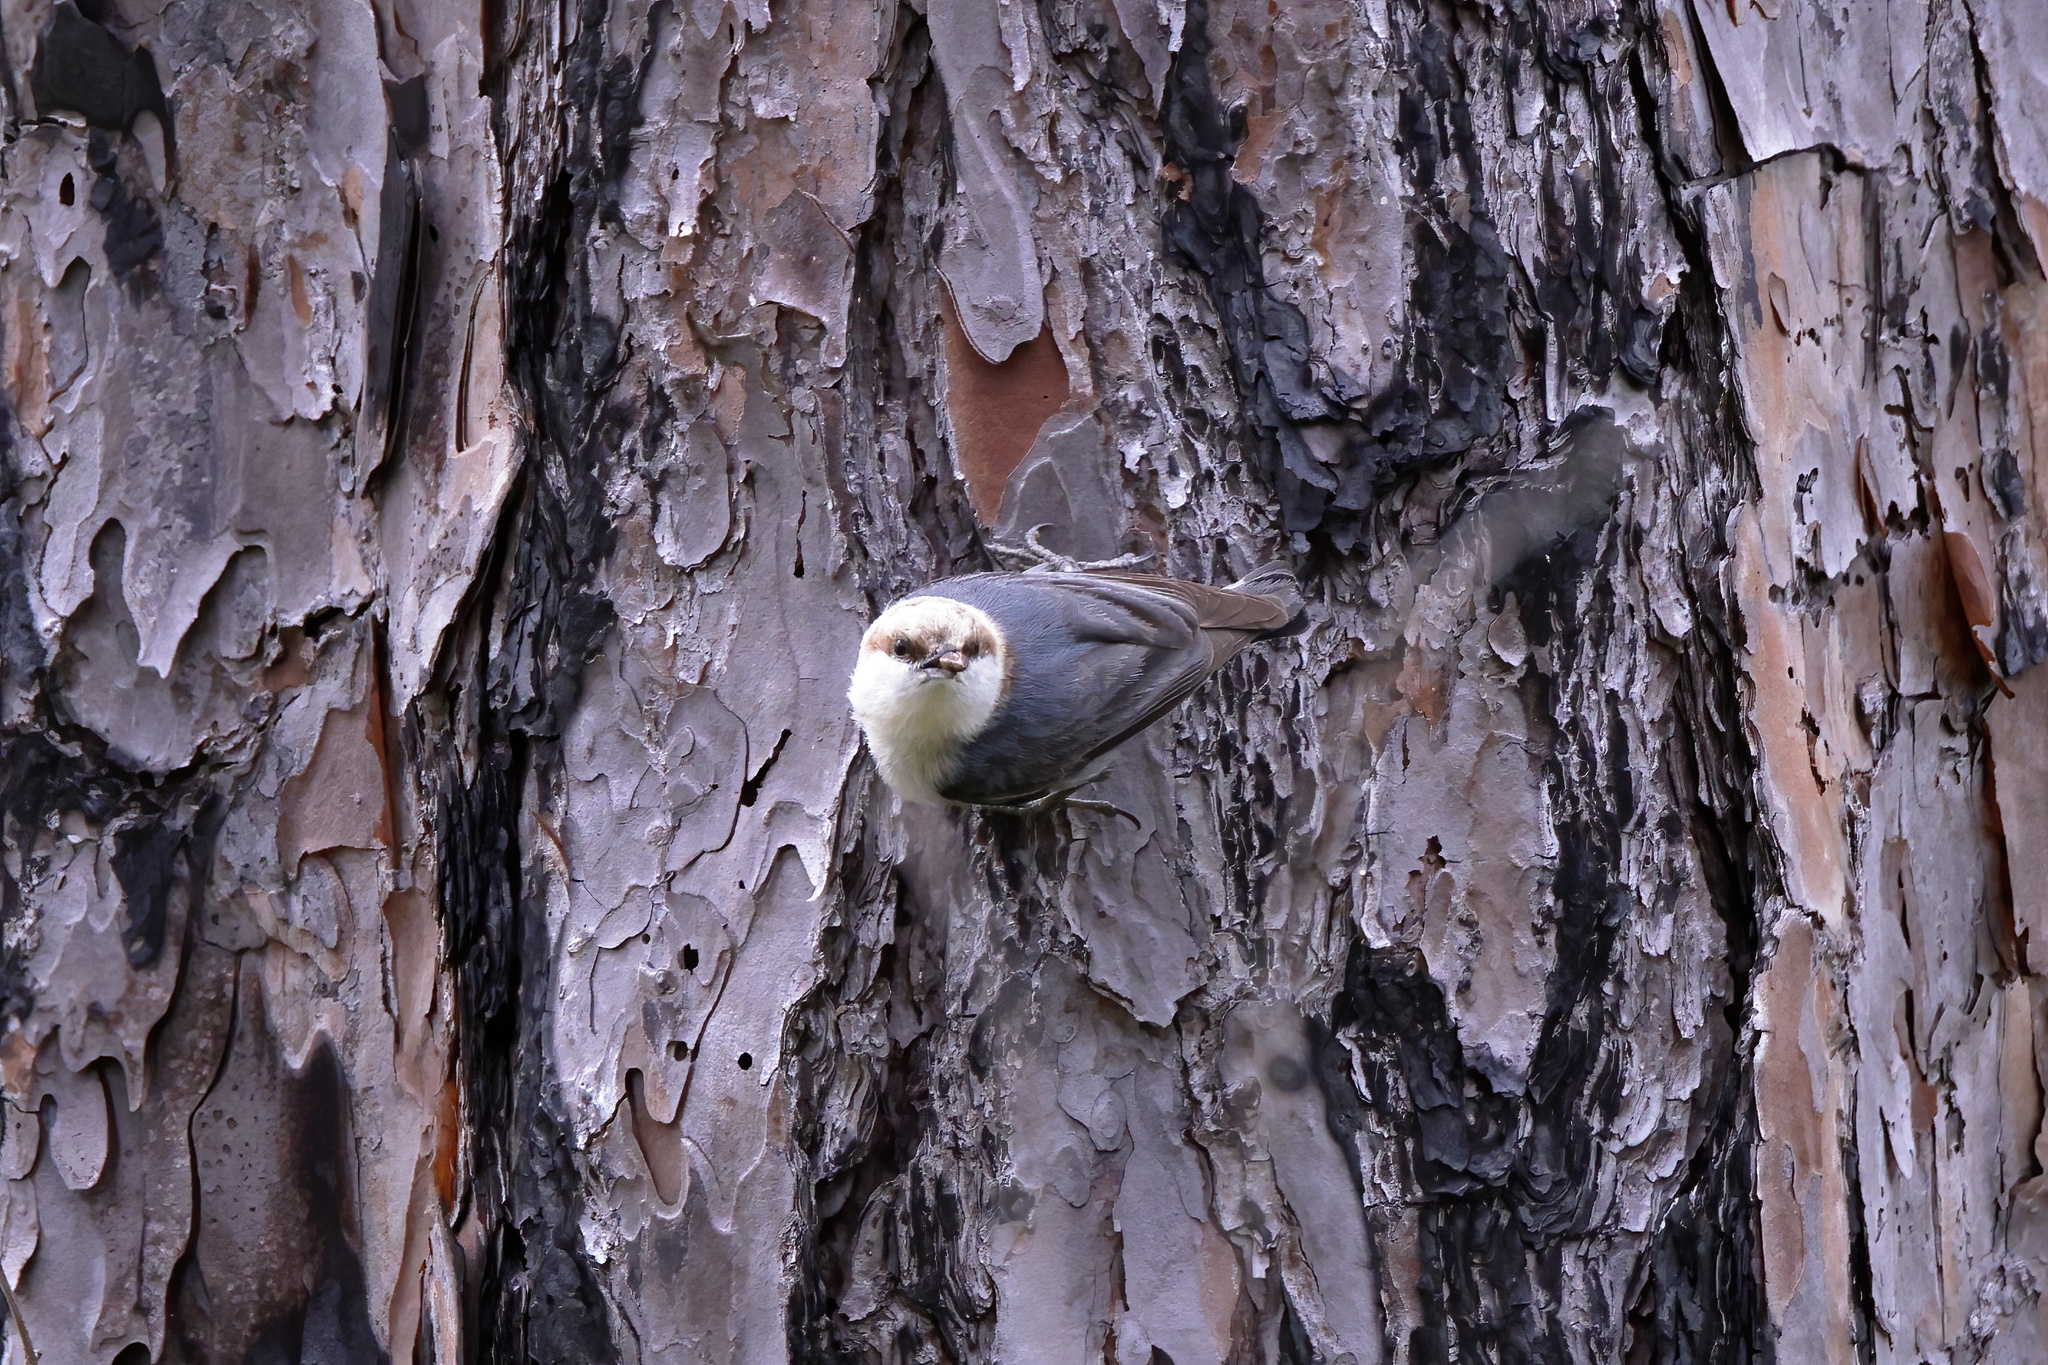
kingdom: Animalia
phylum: Chordata
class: Aves
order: Passeriformes
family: Sittidae
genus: Sitta
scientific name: Sitta pusilla
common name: Brown-headed nuthatch
